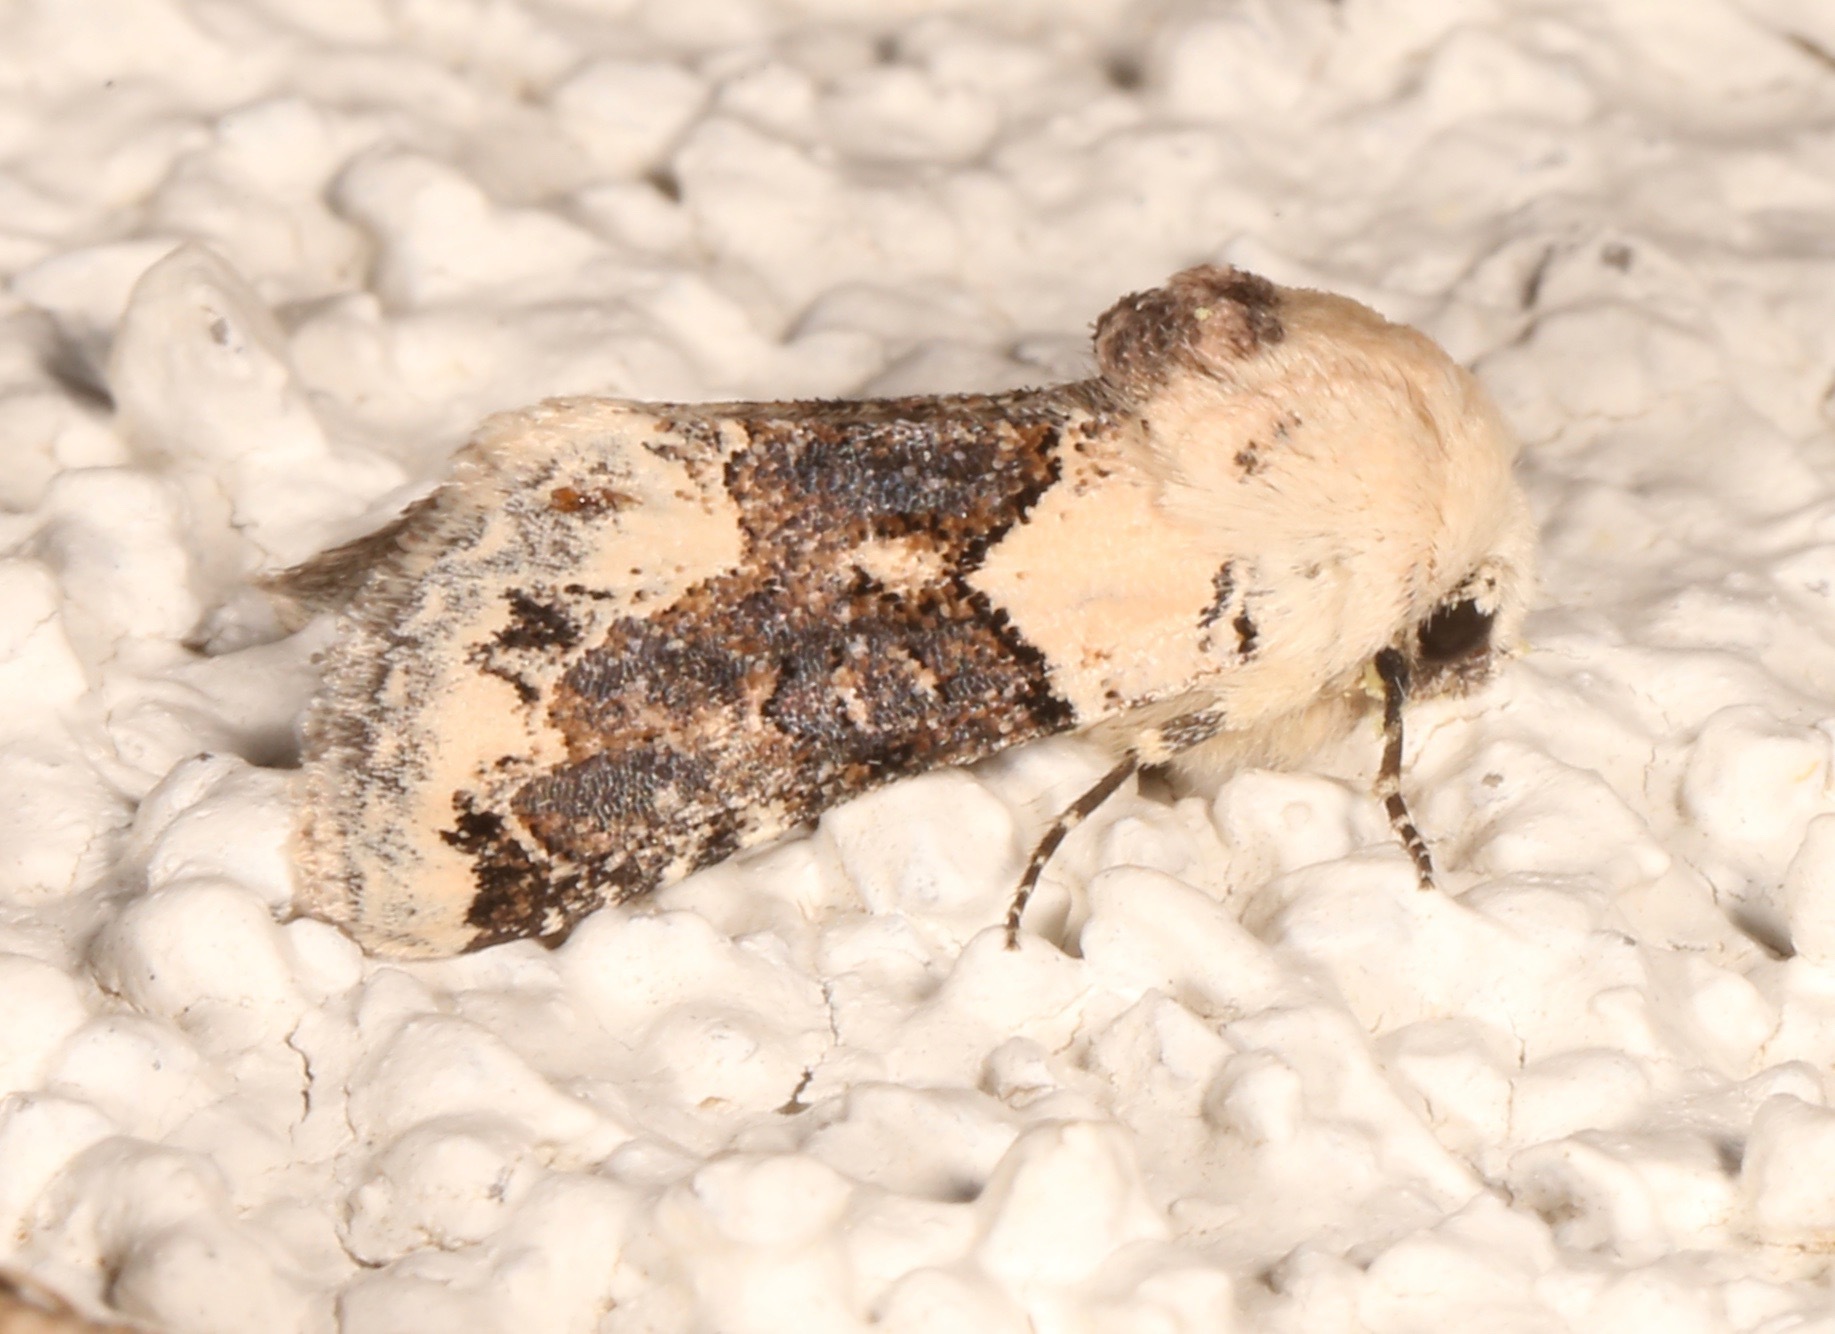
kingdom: Animalia
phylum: Arthropoda
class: Insecta
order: Lepidoptera
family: Noctuidae
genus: Triocnemis
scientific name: Triocnemis saporis
